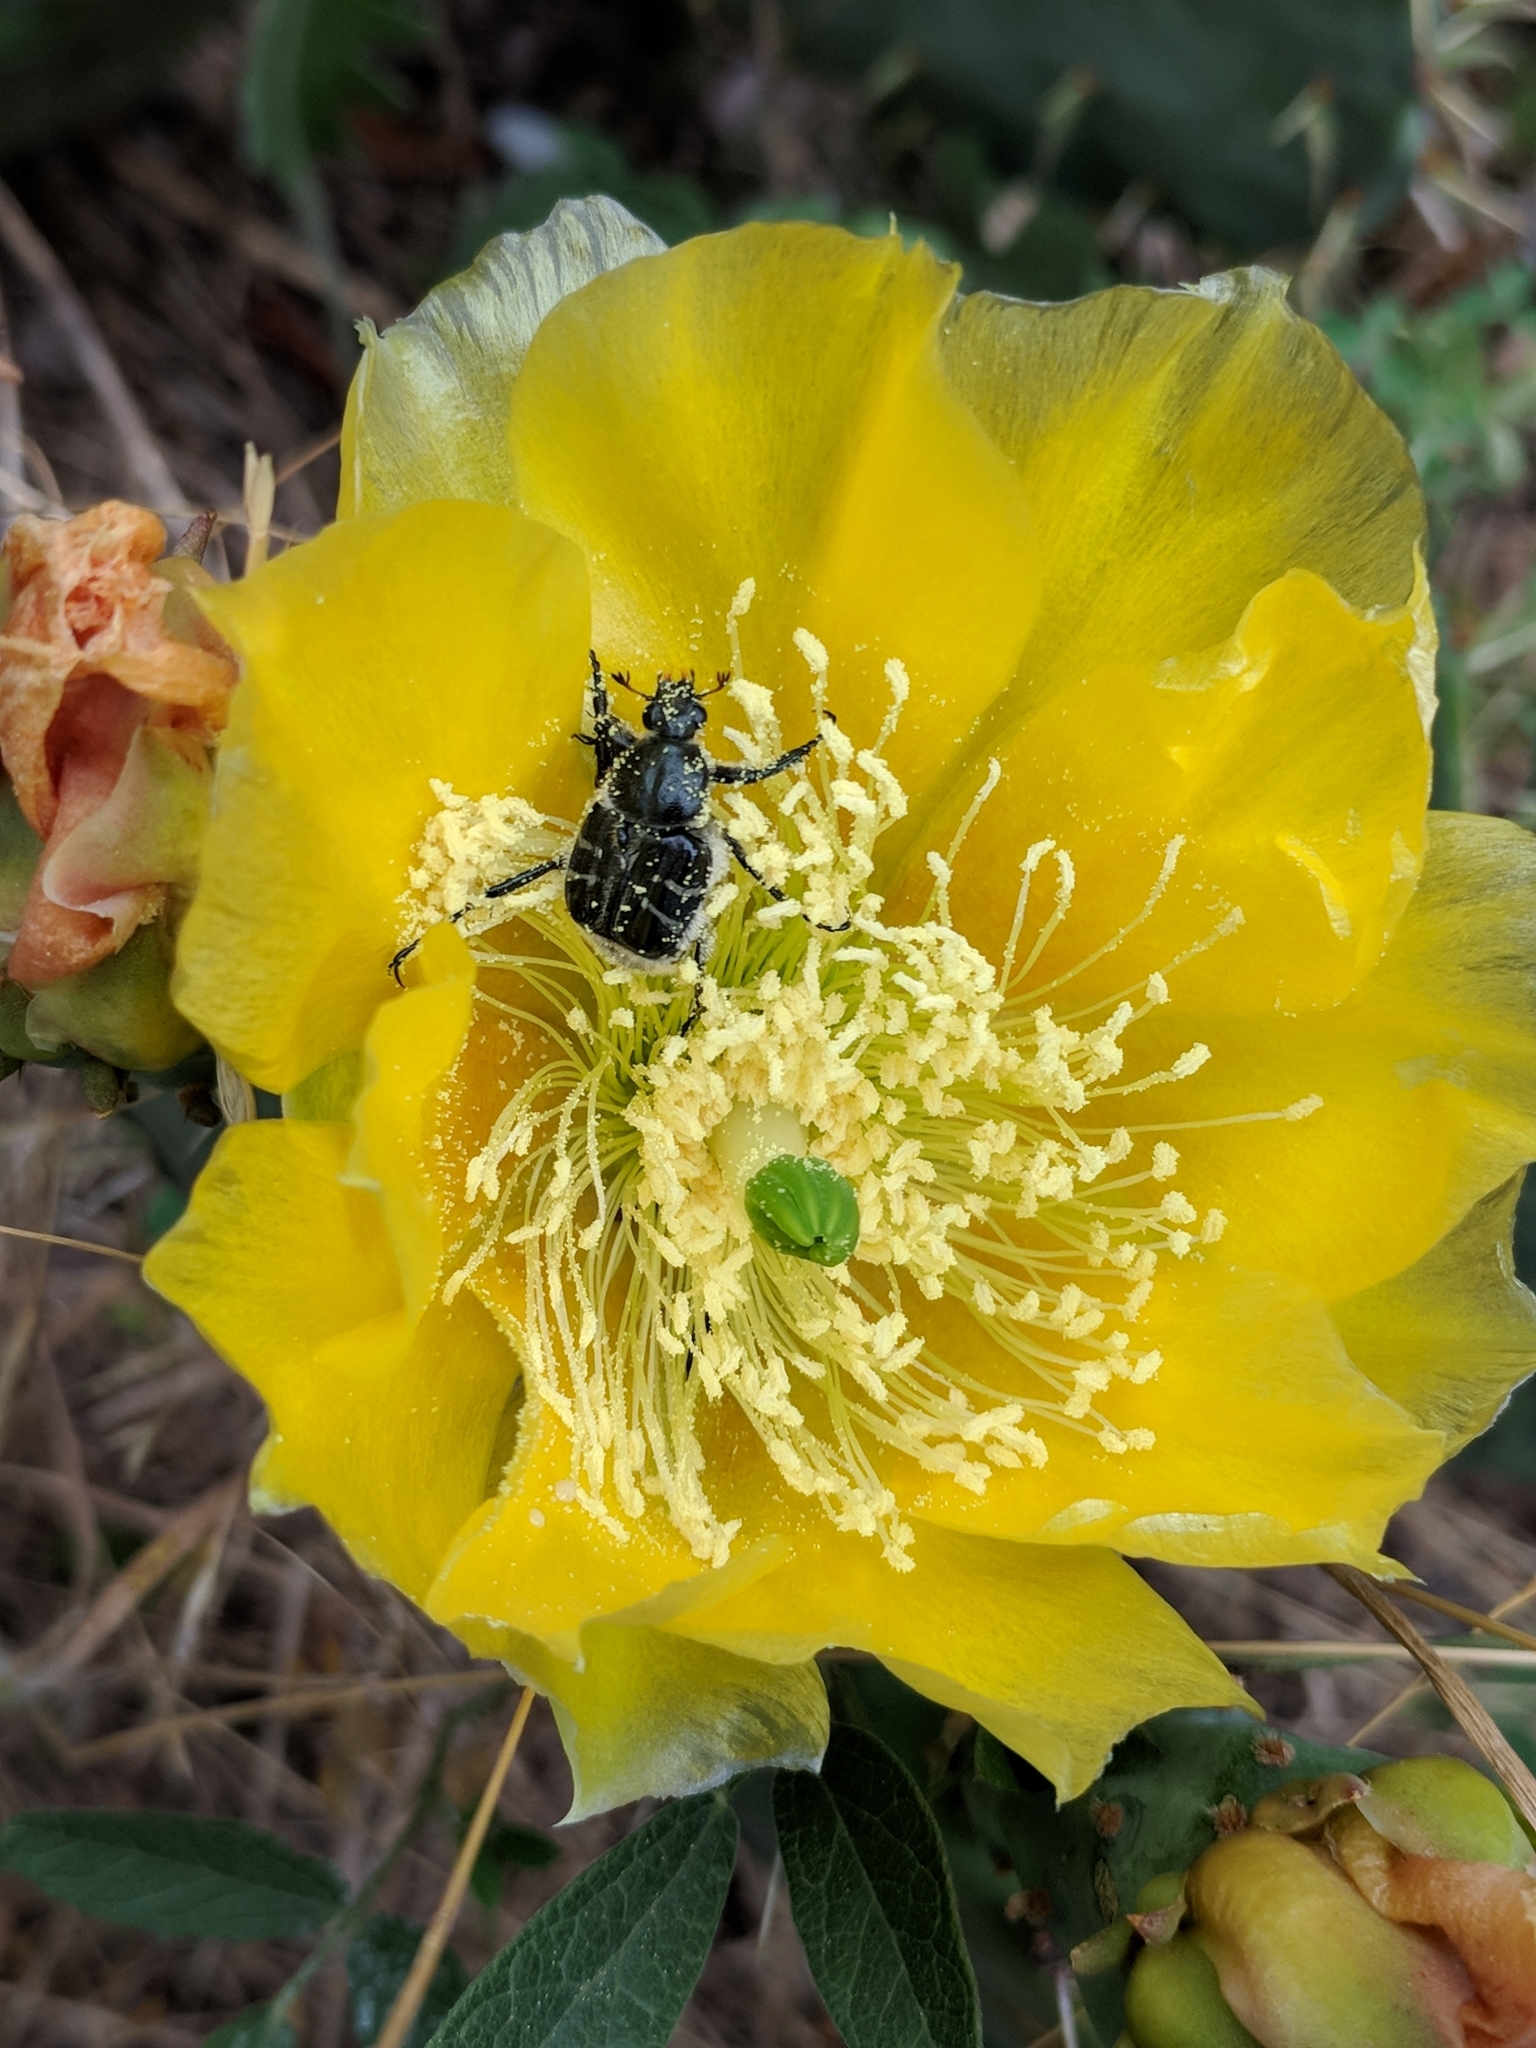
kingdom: Animalia
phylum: Arthropoda
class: Insecta
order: Coleoptera
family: Scarabaeidae
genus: Trichiotinus
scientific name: Trichiotinus texanus
